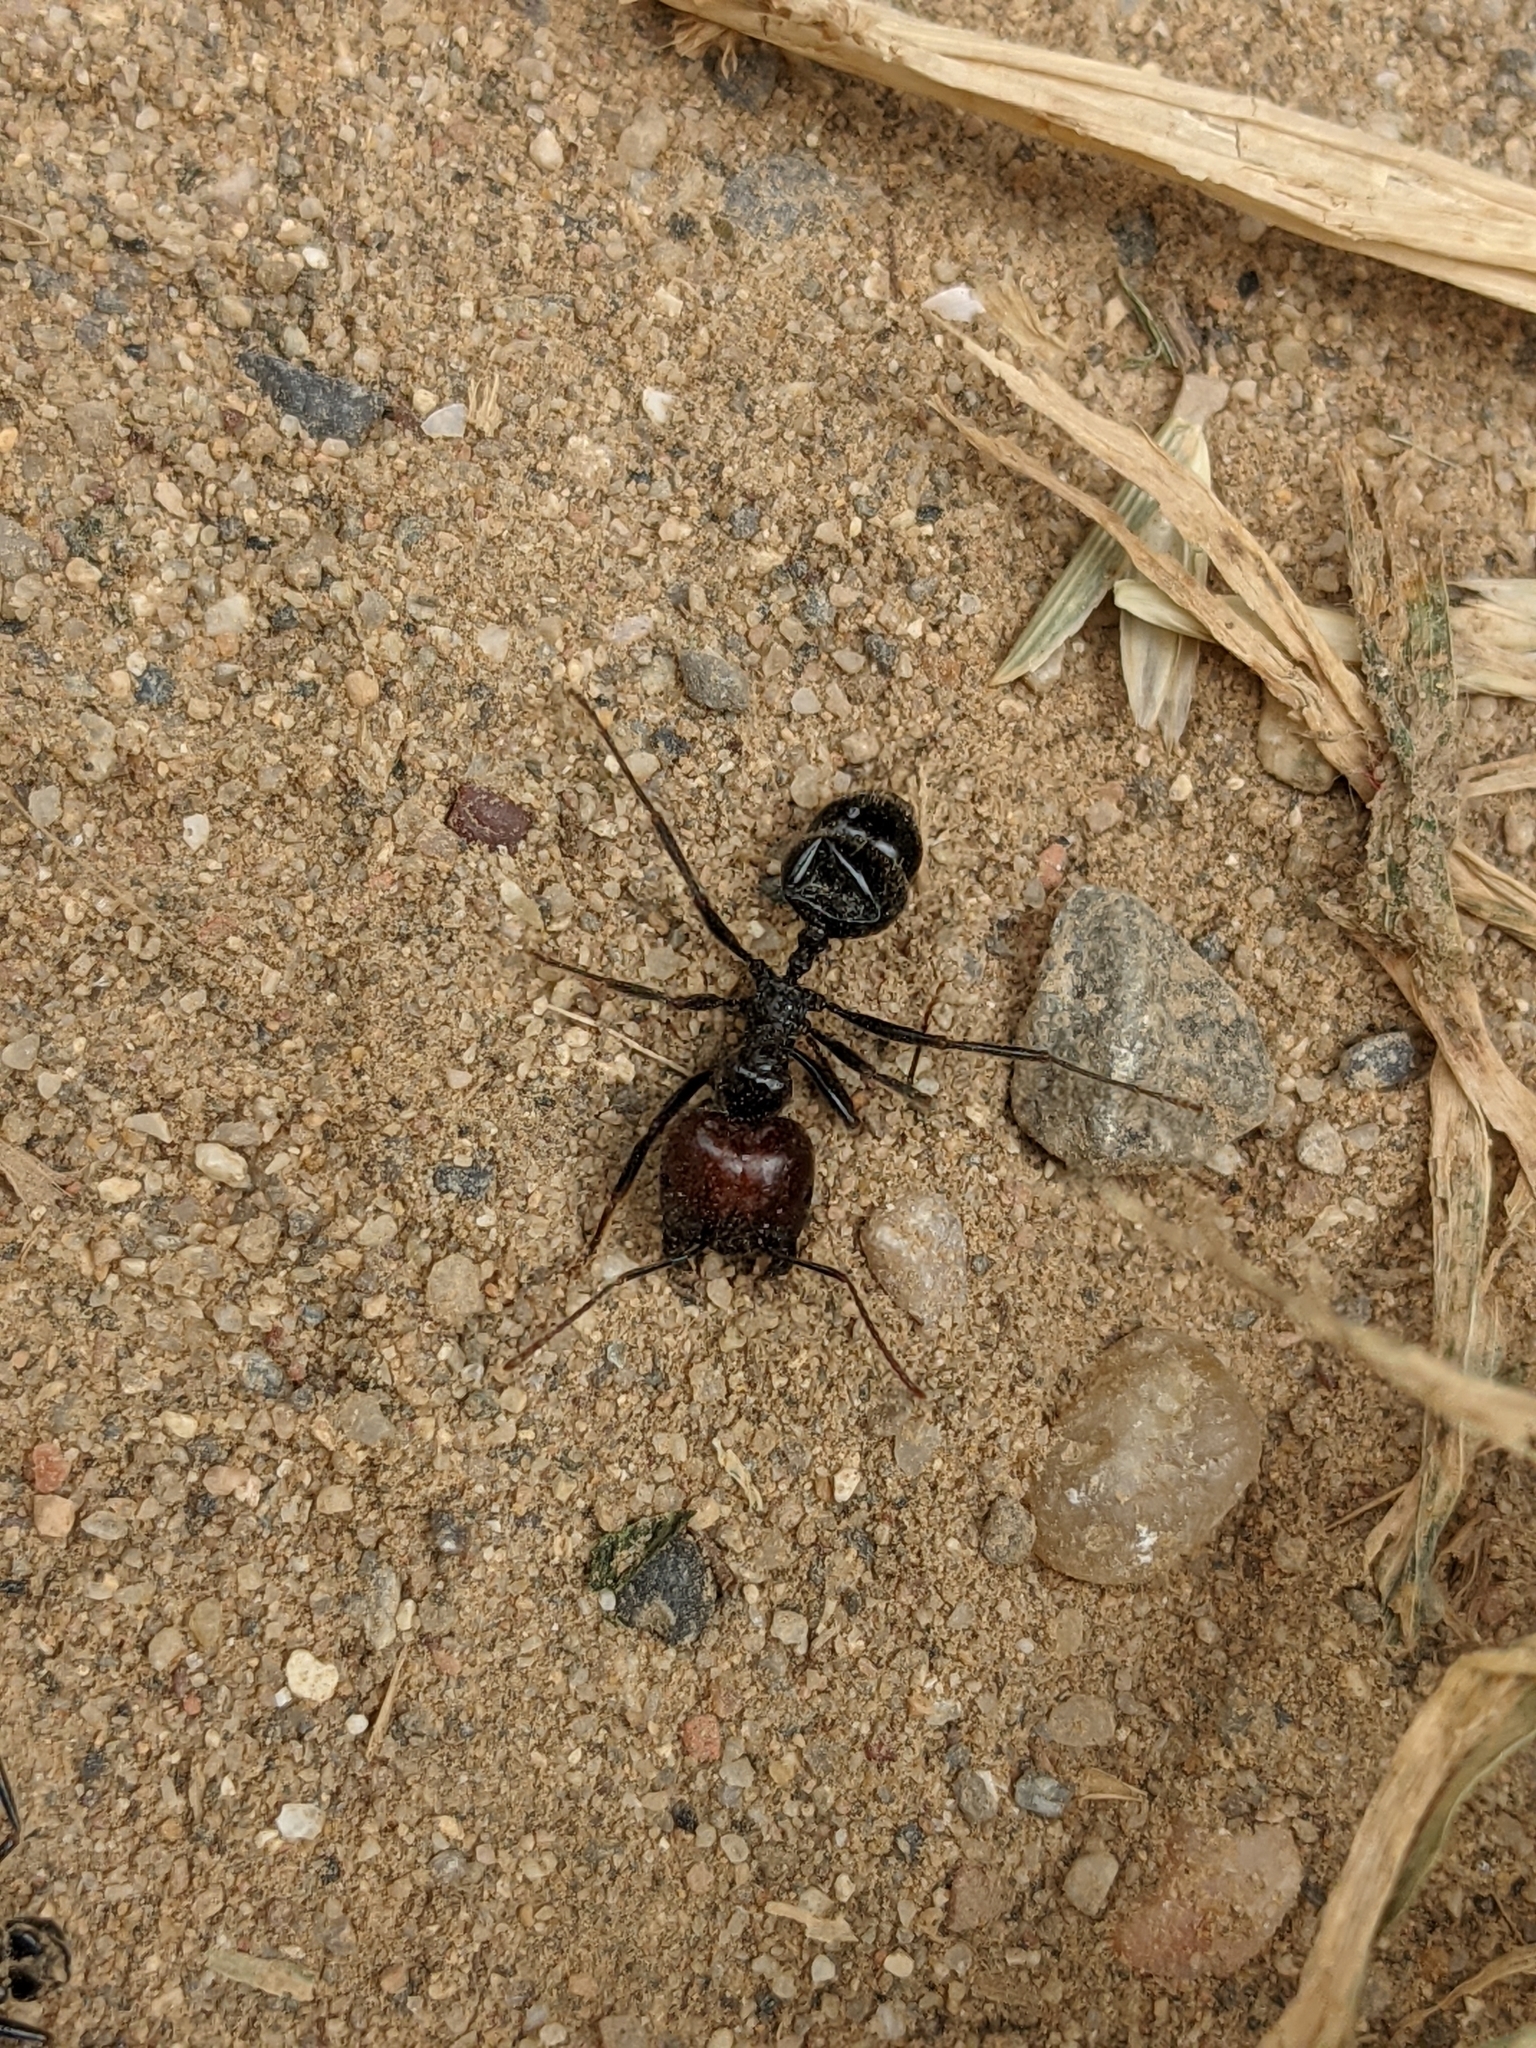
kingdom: Animalia
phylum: Arthropoda
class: Insecta
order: Hymenoptera
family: Formicidae
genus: Messor
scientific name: Messor barbarus
